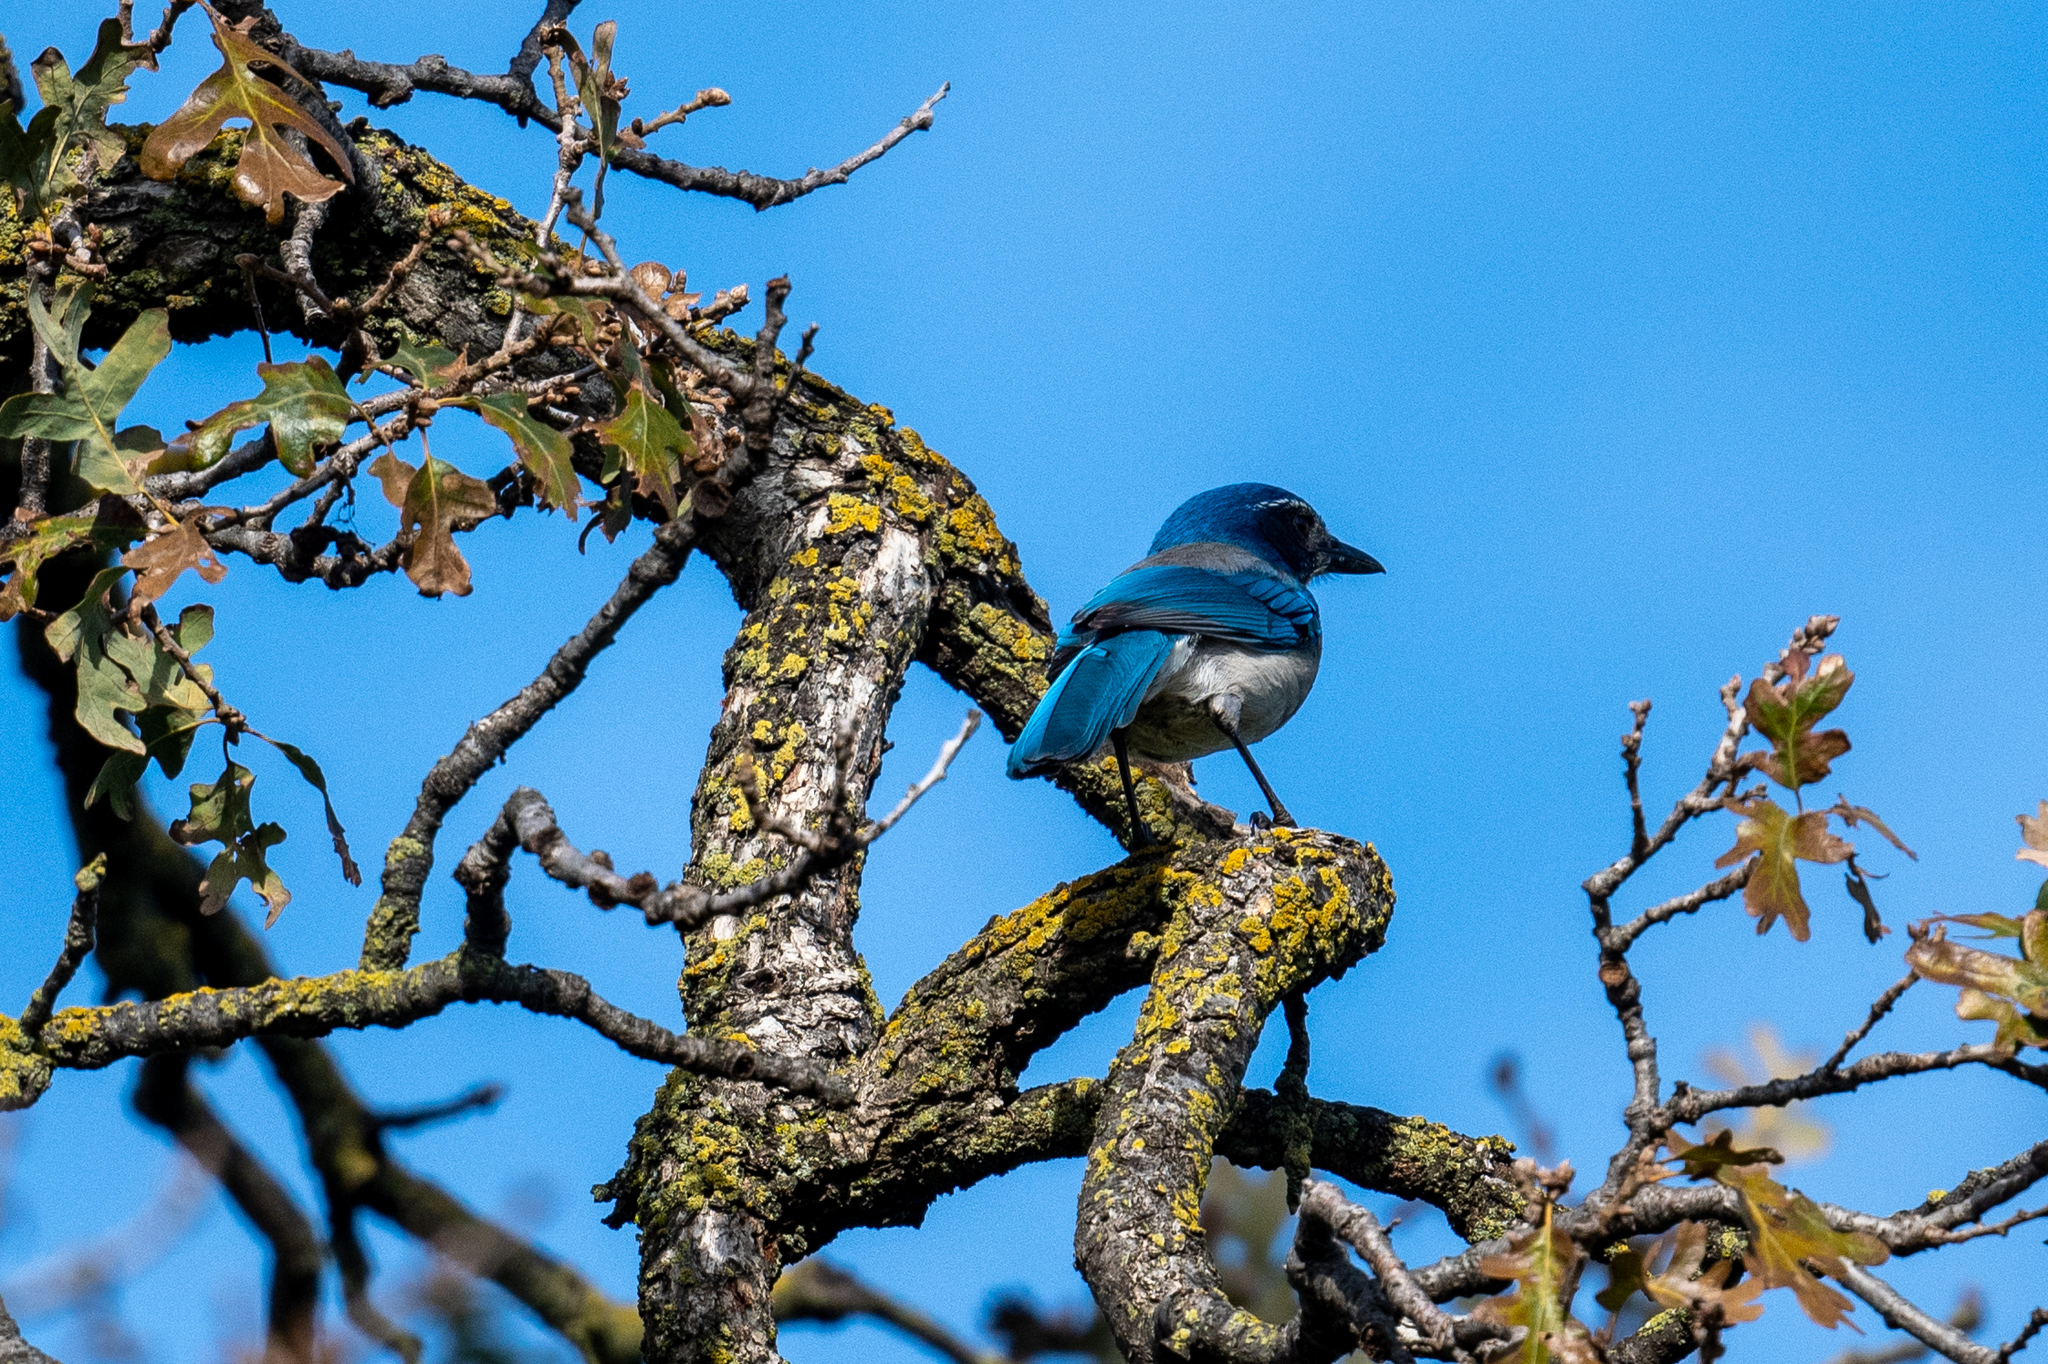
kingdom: Animalia
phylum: Chordata
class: Aves
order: Passeriformes
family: Corvidae
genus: Aphelocoma
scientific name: Aphelocoma californica
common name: California scrub-jay
